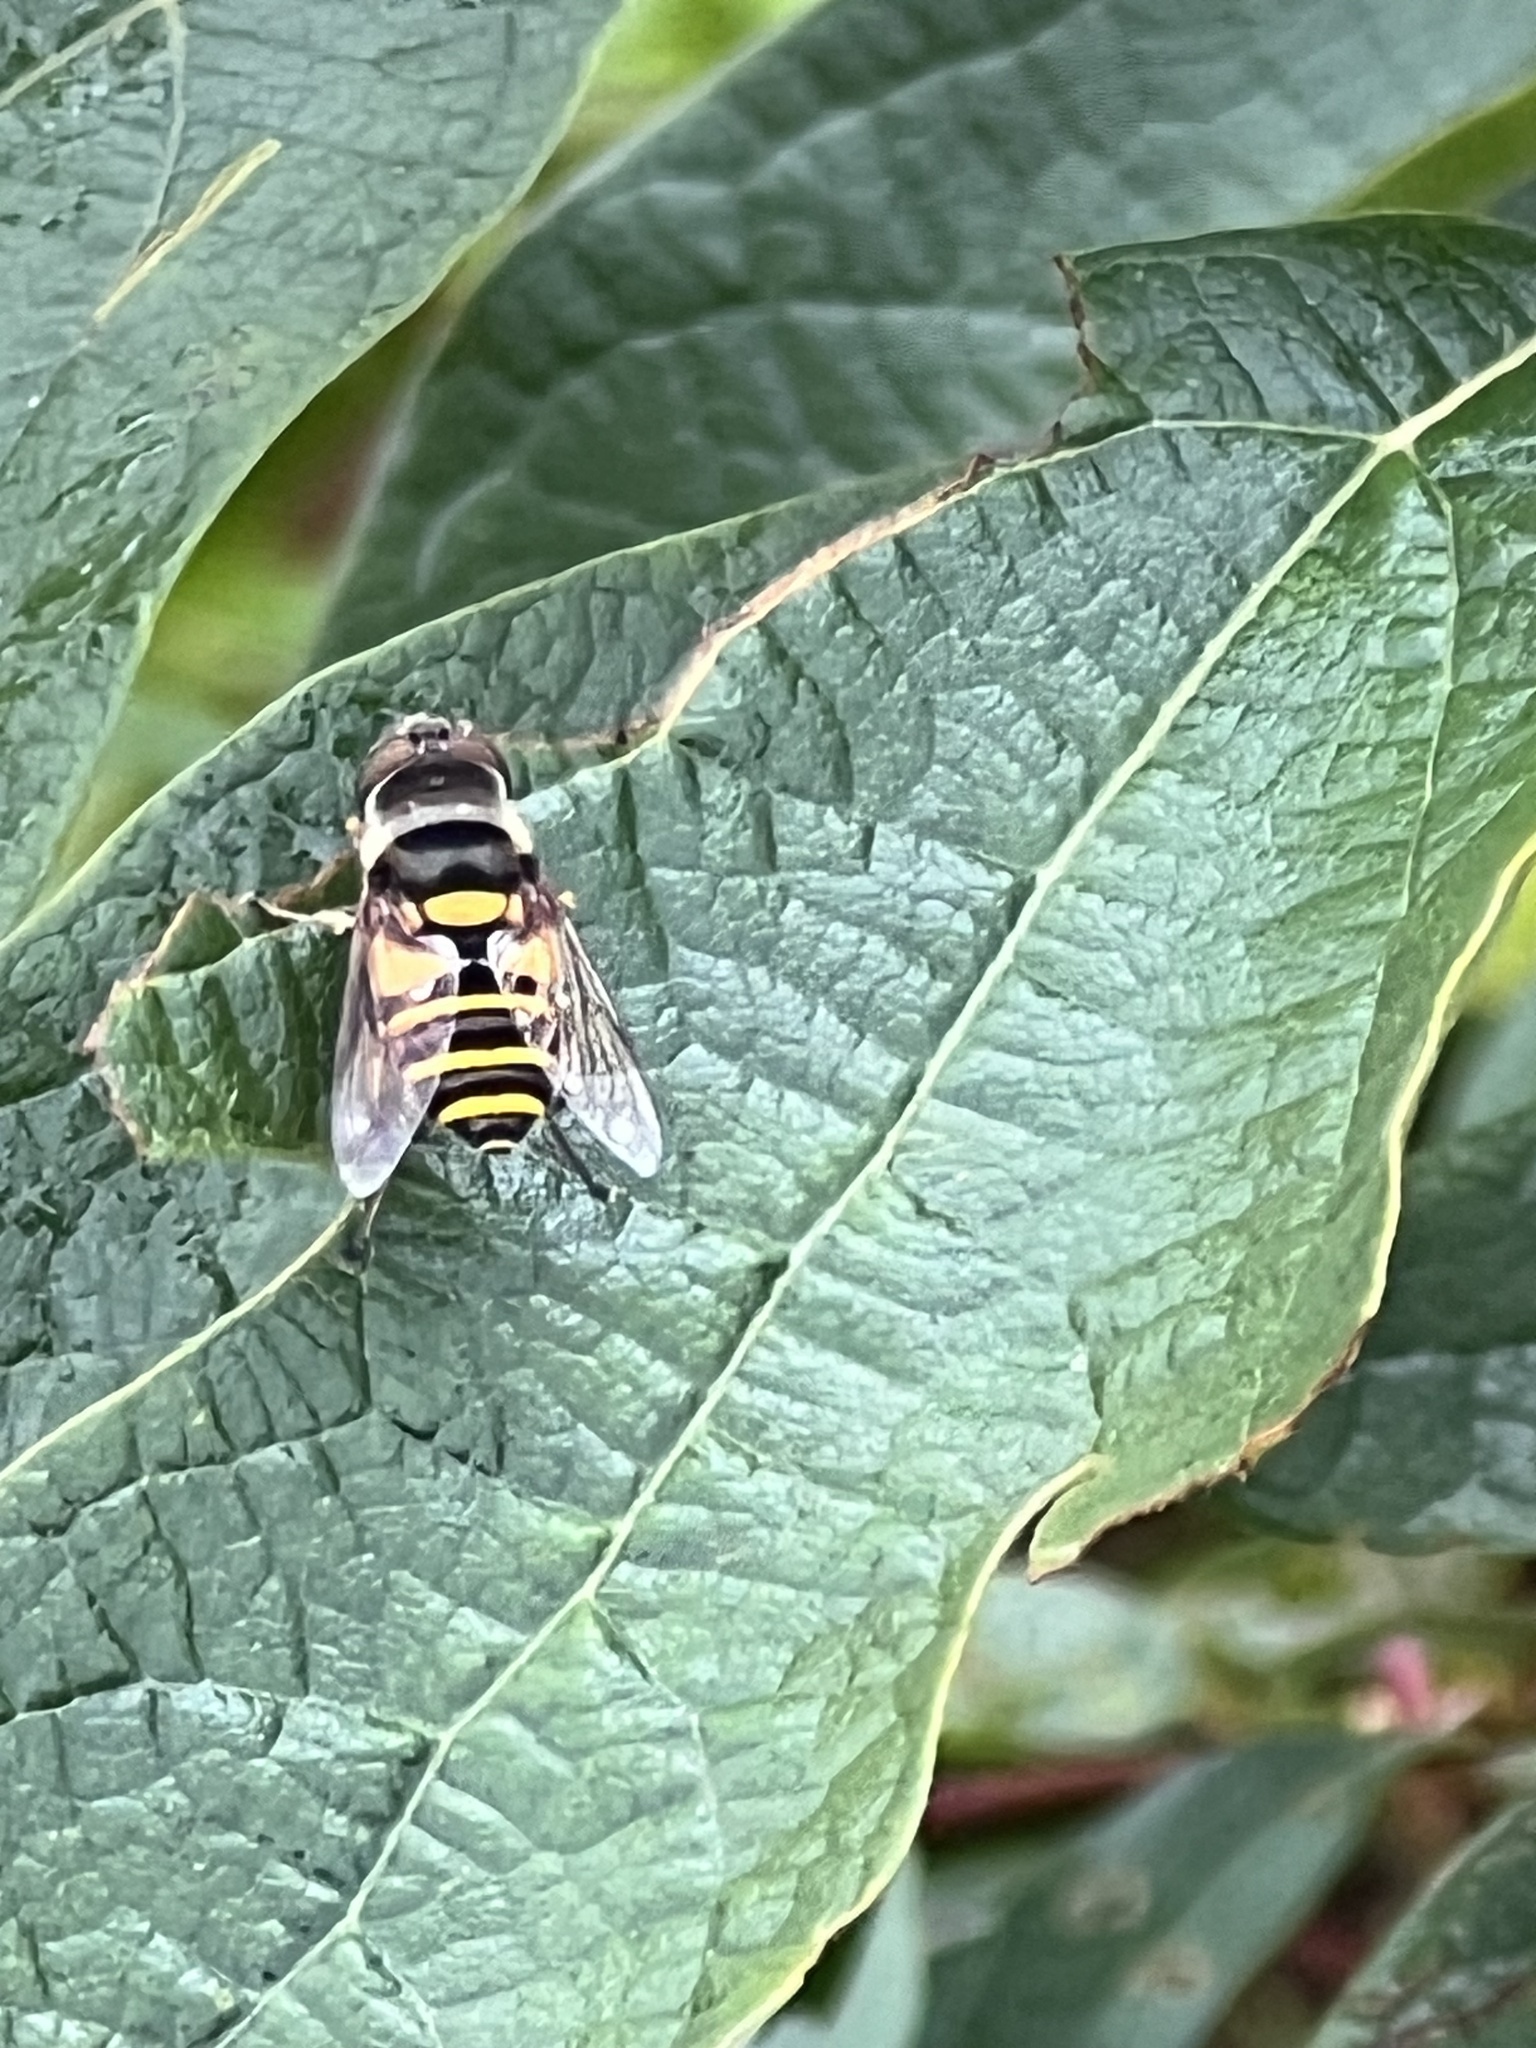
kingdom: Animalia
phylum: Arthropoda
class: Insecta
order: Diptera
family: Syrphidae
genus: Eristalis
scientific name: Eristalis transversa
